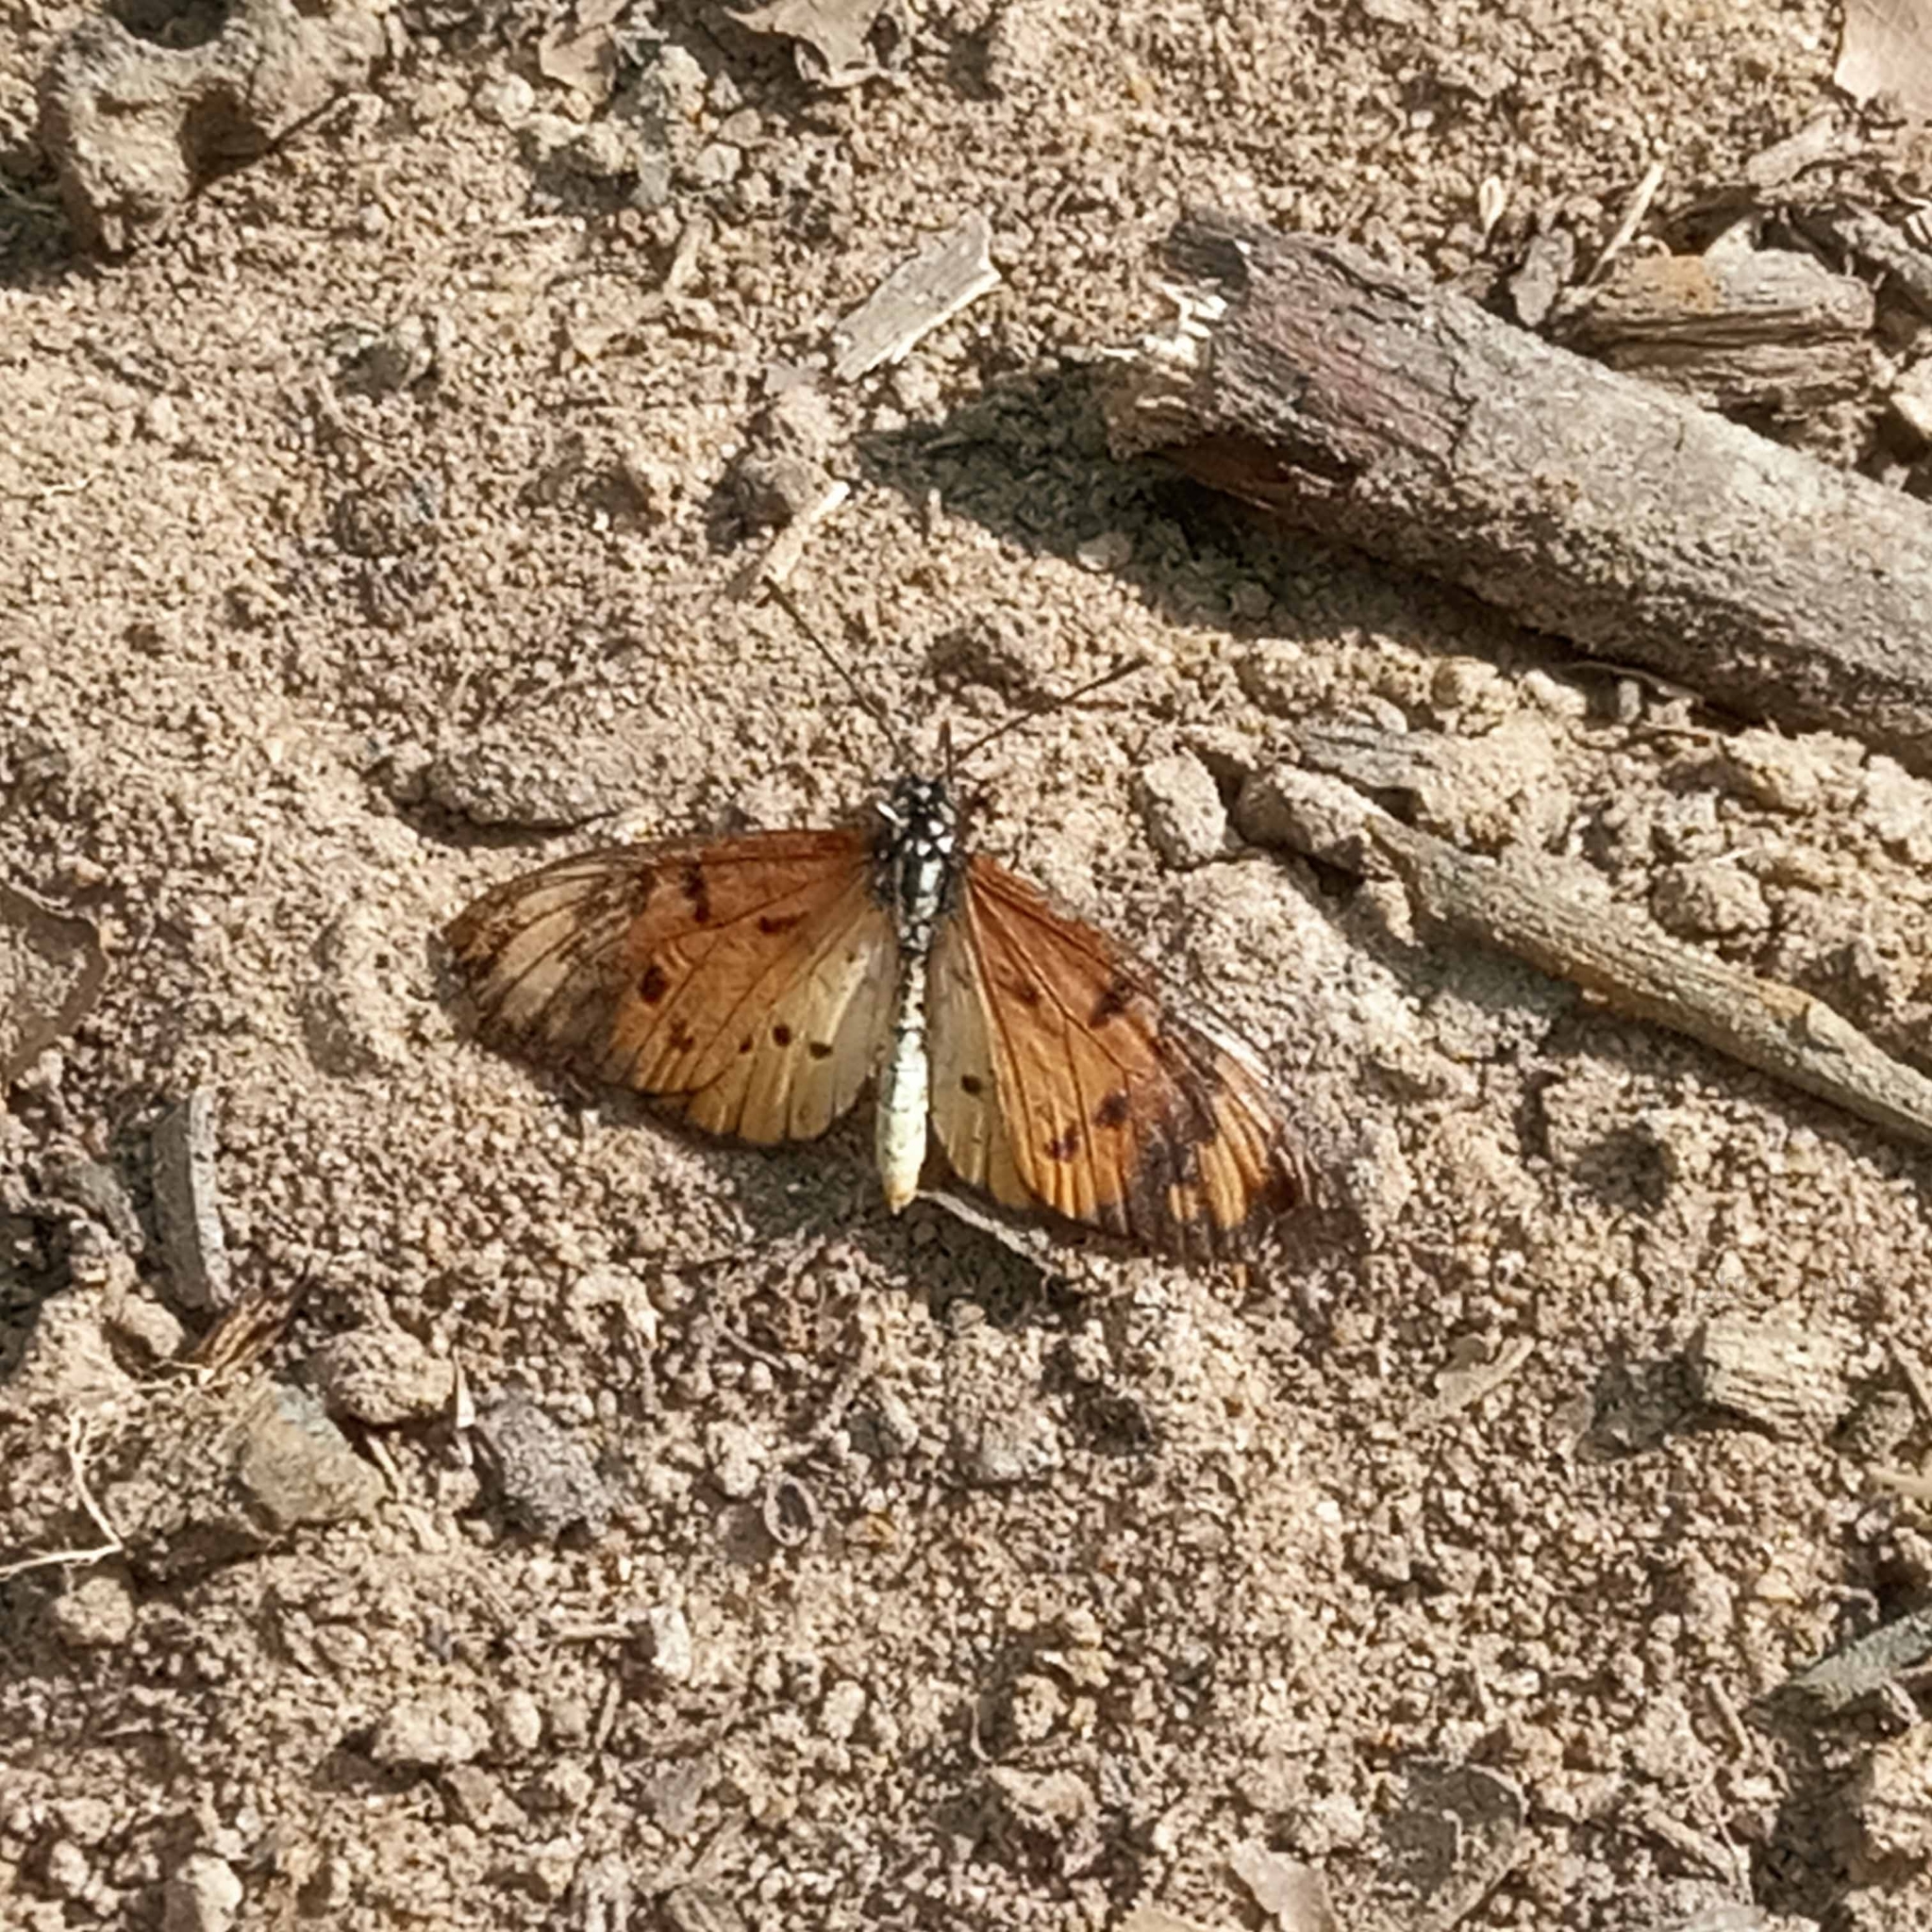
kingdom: Animalia
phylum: Arthropoda
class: Insecta
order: Lepidoptera
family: Nymphalidae
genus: Acraea
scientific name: Acraea Telchinia encedon
